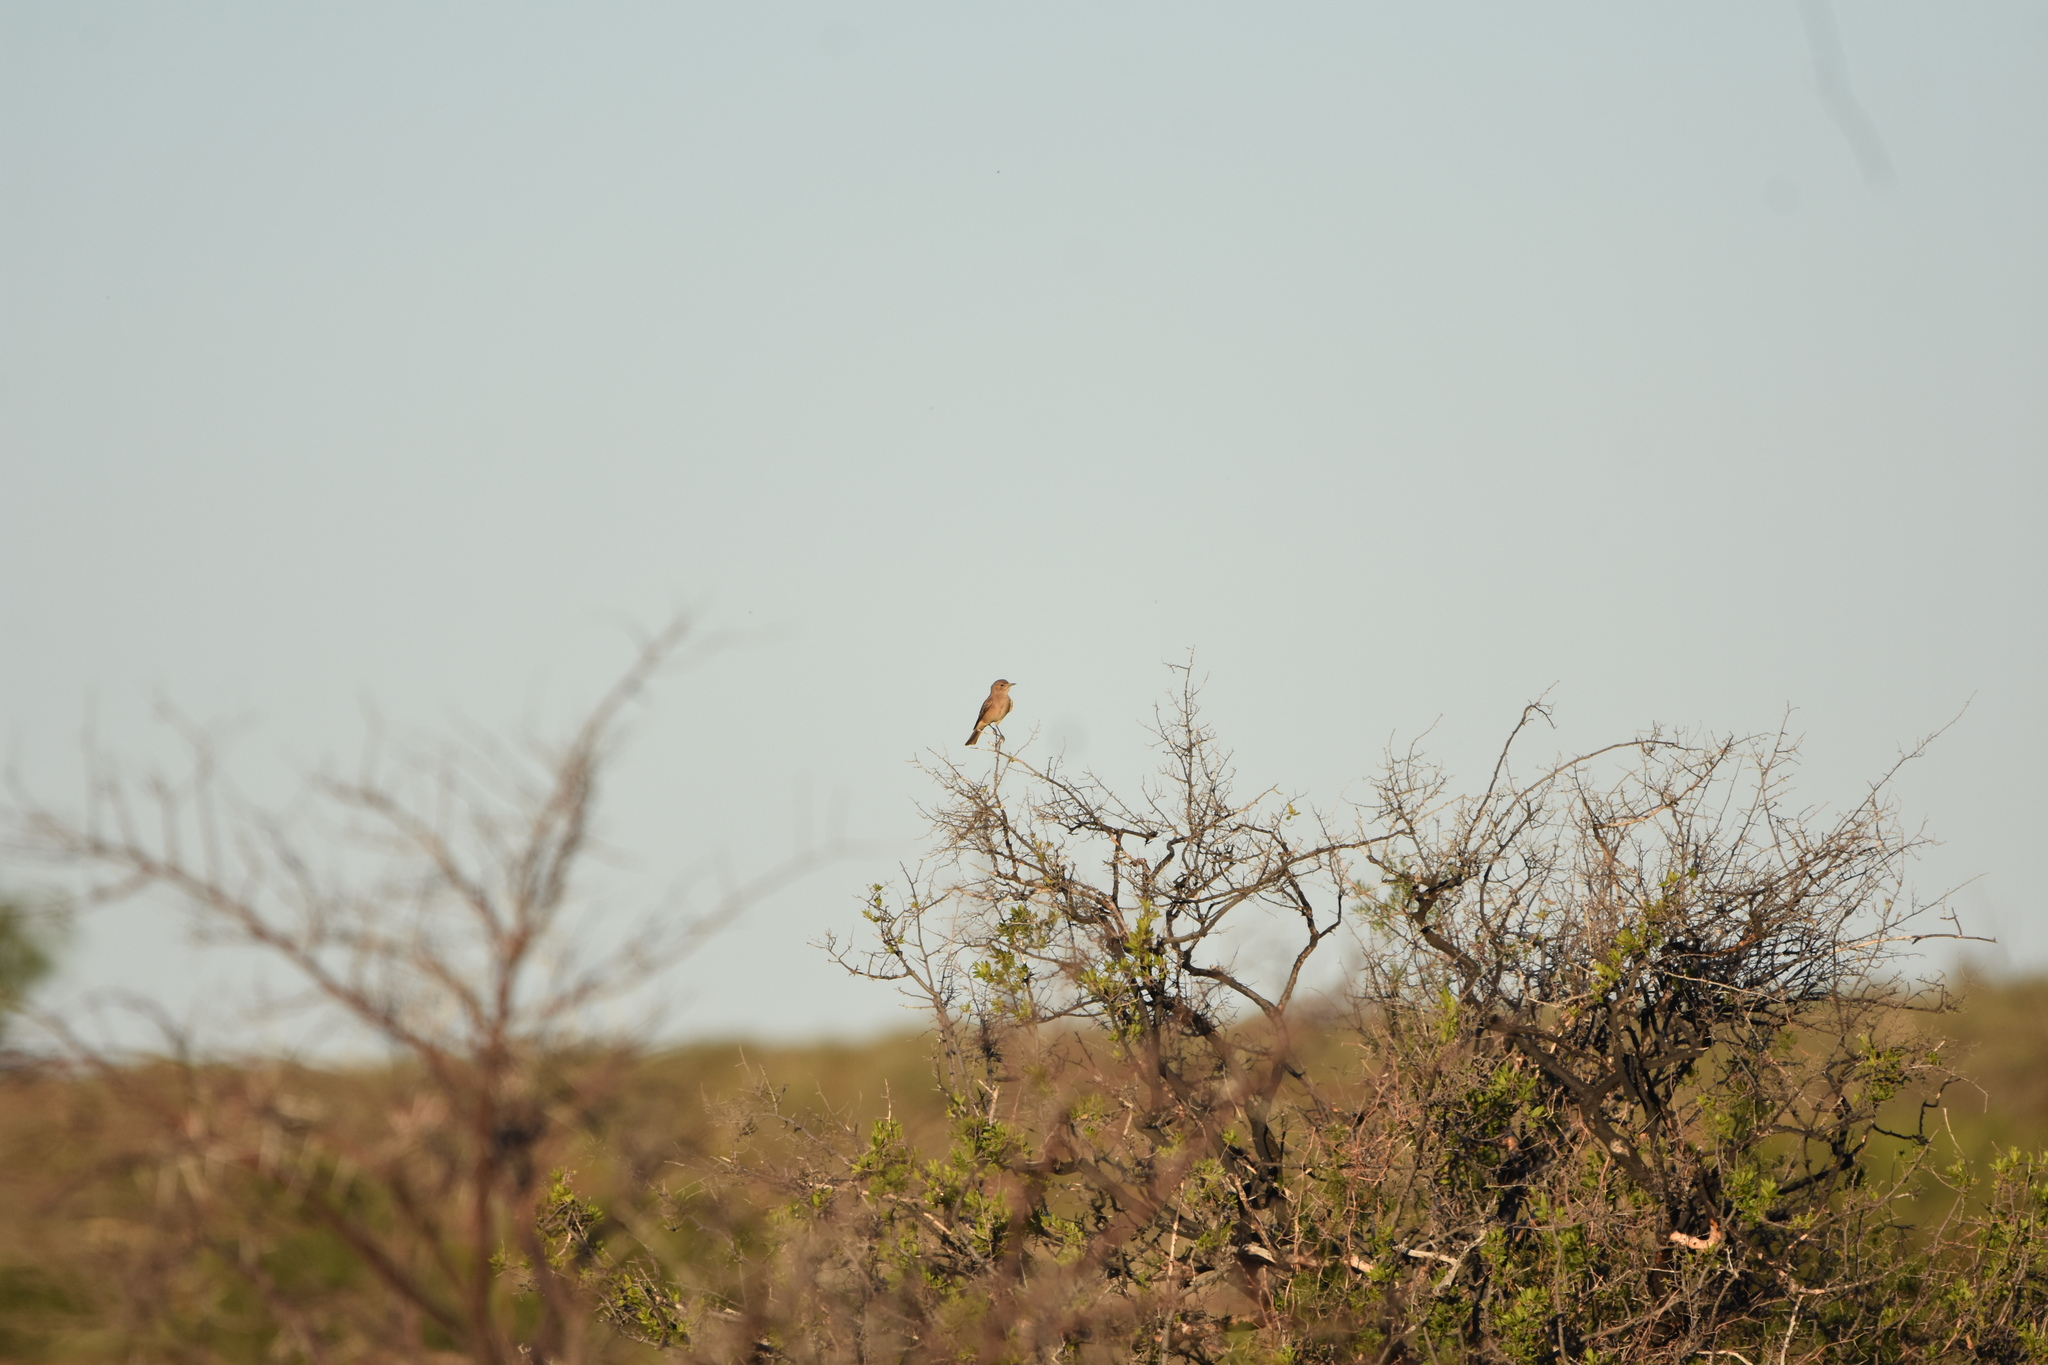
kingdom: Animalia
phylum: Chordata
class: Aves
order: Passeriformes
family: Muscicapidae
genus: Bradornis
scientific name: Bradornis infuscatus
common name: Chat flycatcher
